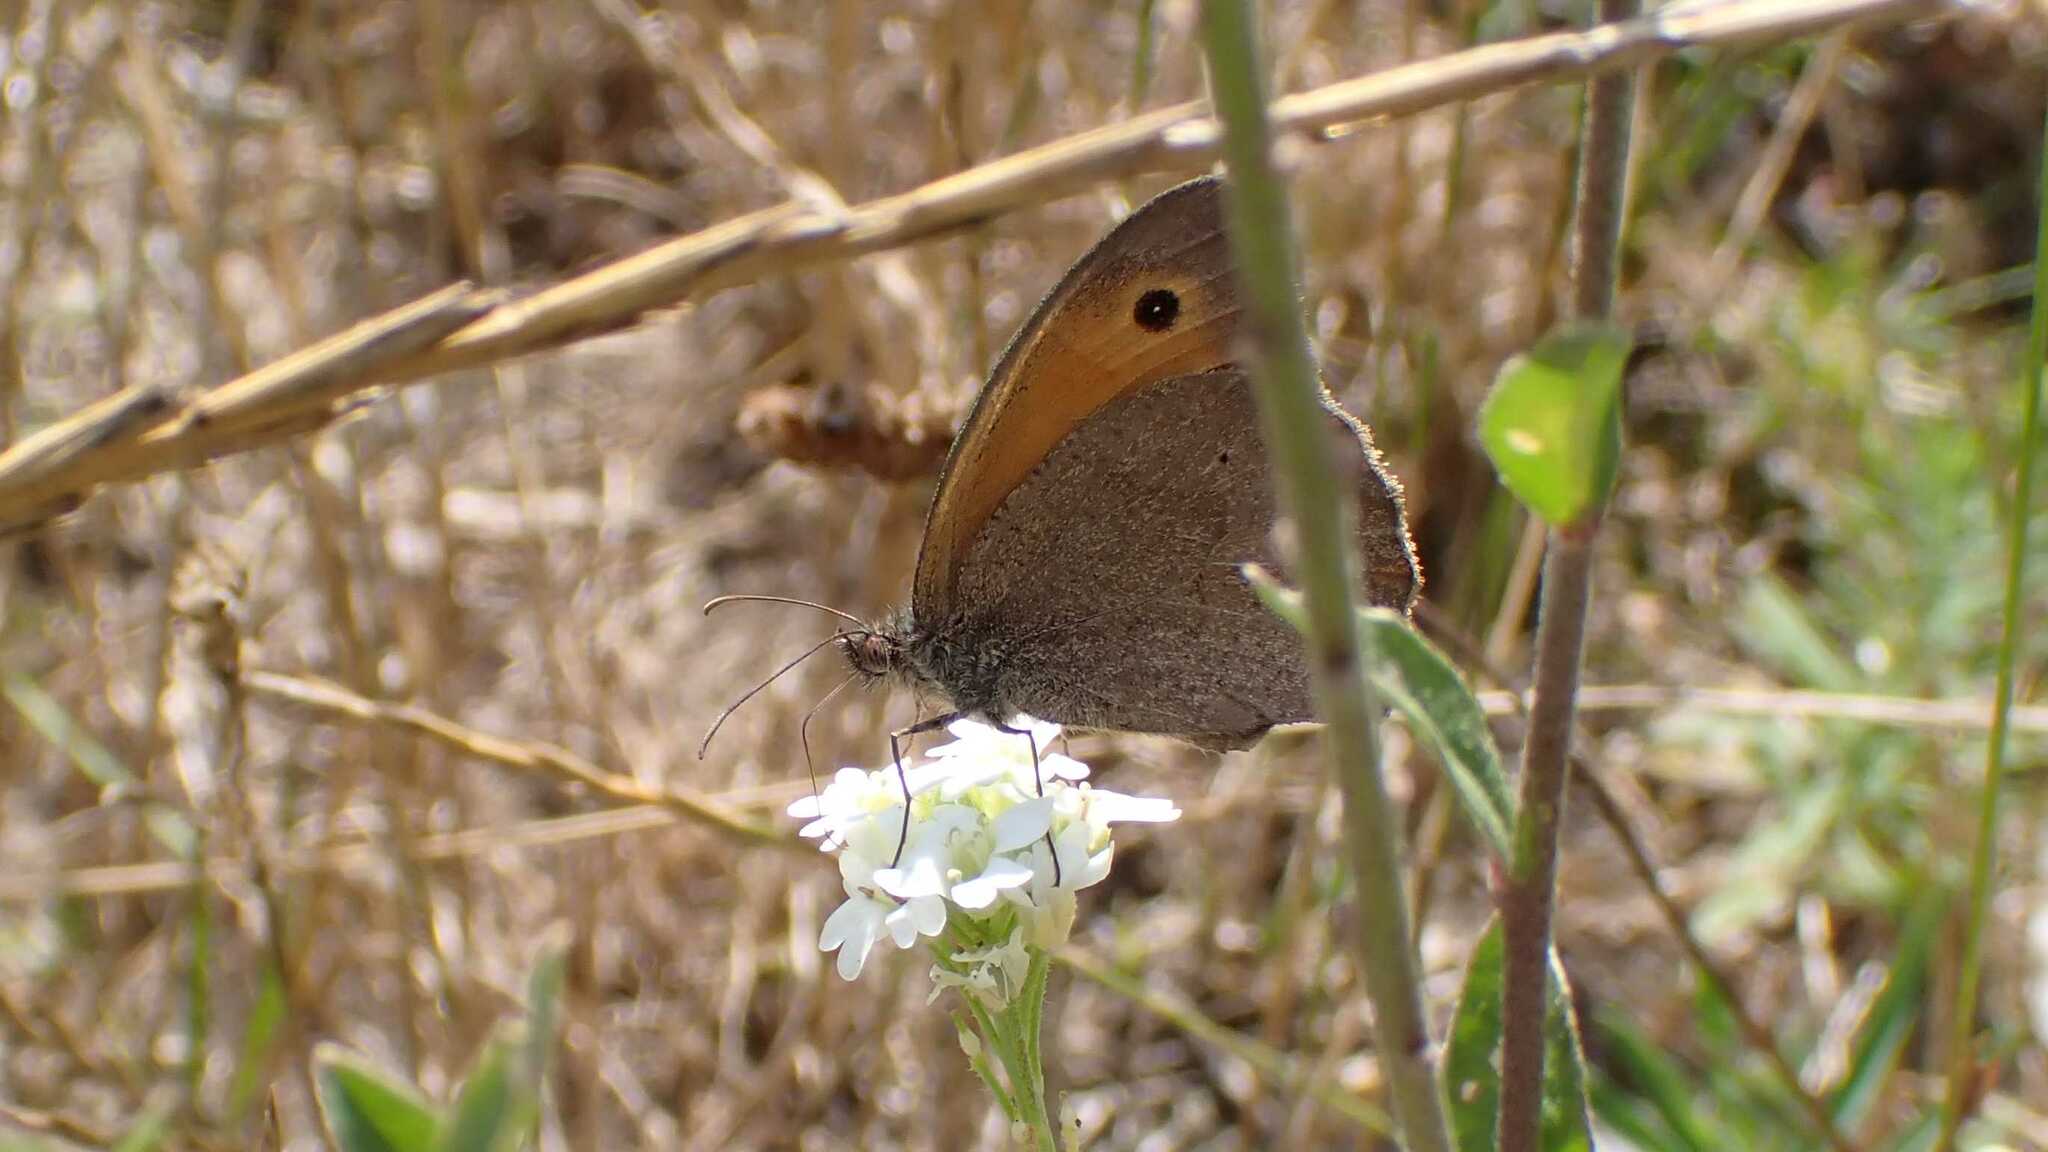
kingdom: Animalia
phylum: Arthropoda
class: Insecta
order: Lepidoptera
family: Nymphalidae
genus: Maniola
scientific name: Maniola jurtina
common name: Meadow brown
